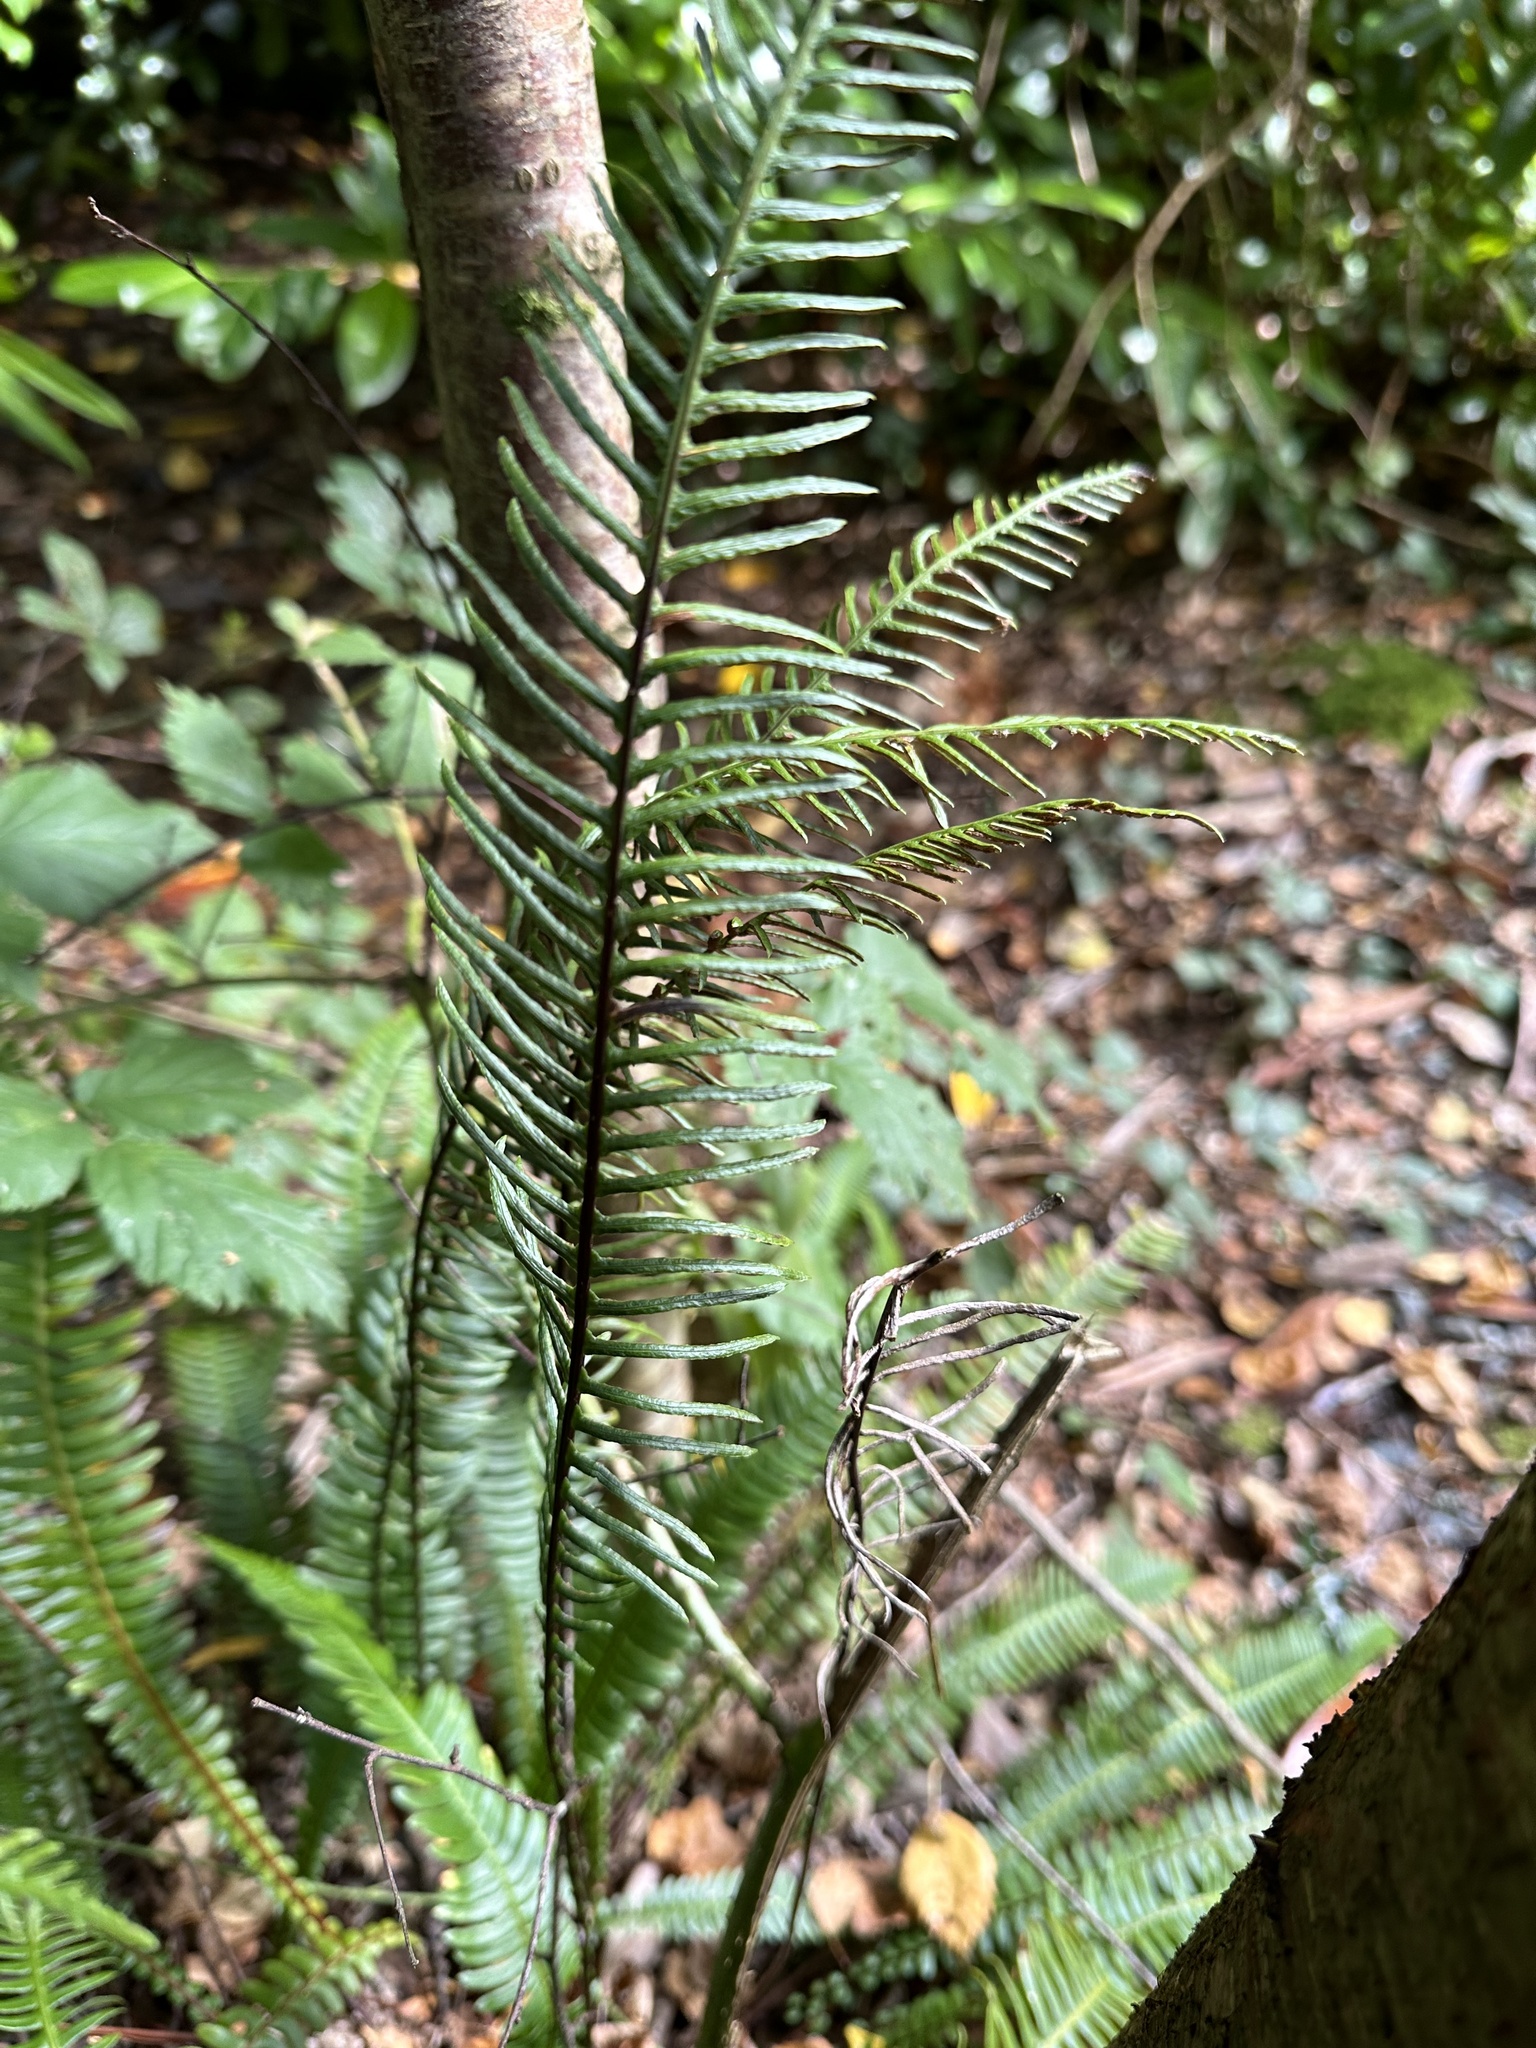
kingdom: Plantae
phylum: Tracheophyta
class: Polypodiopsida
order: Polypodiales
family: Blechnaceae
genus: Struthiopteris
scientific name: Struthiopteris spicant
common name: Deer fern
